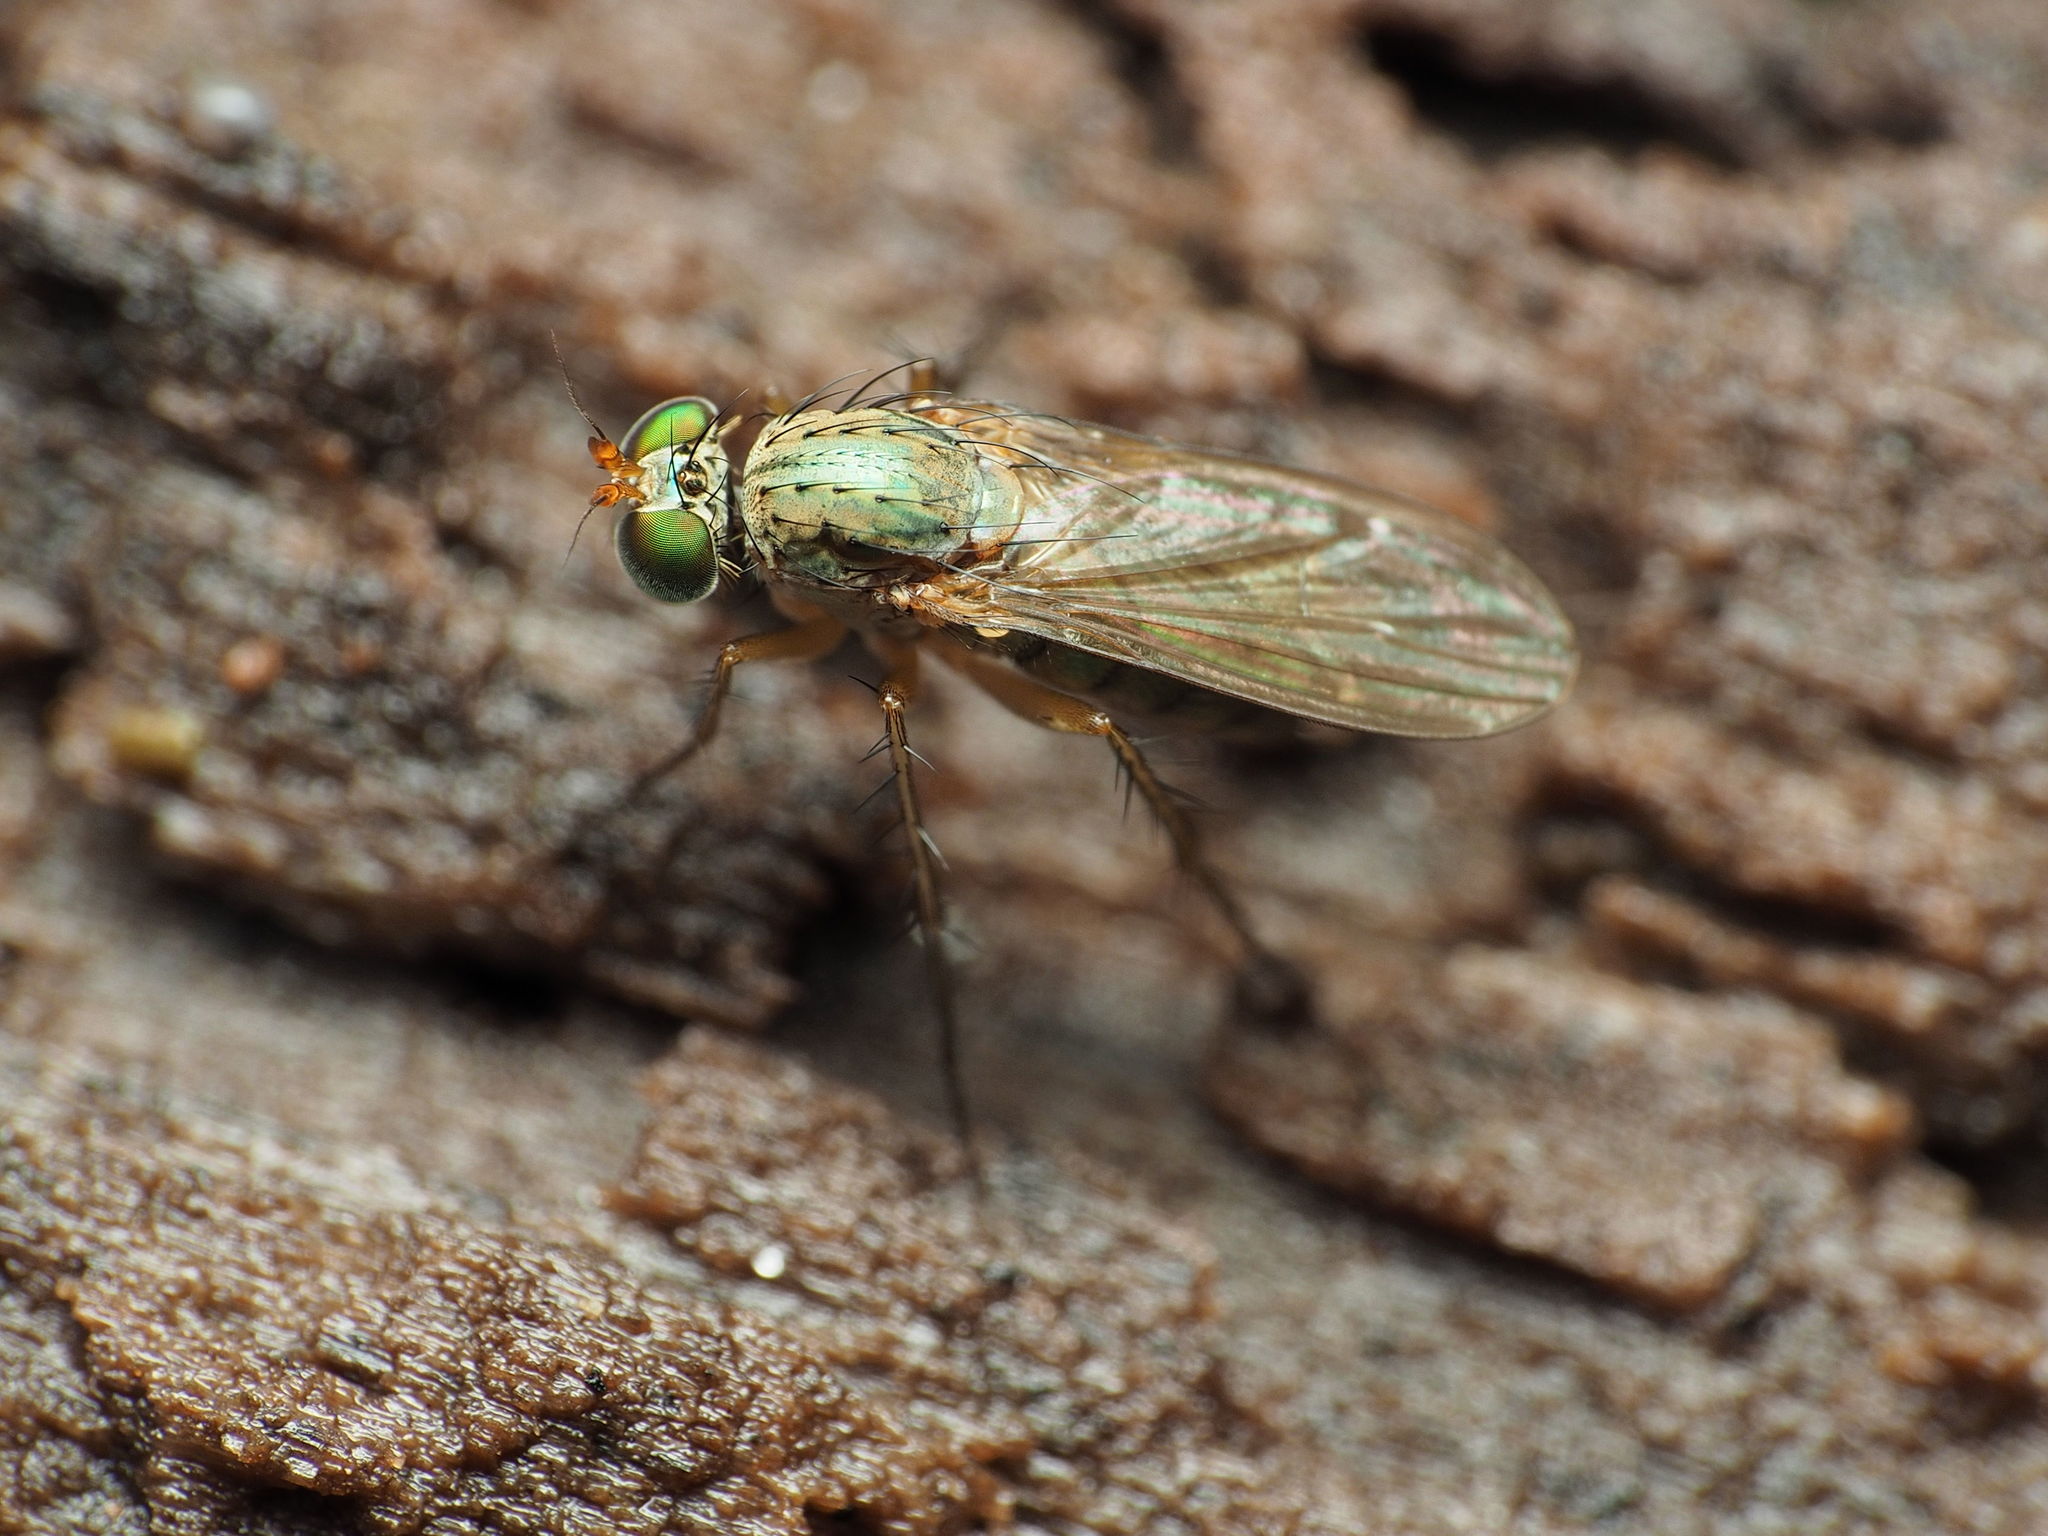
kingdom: Animalia
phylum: Arthropoda
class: Insecta
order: Diptera
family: Dolichopodidae
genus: Dolichopus
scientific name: Dolichopus
